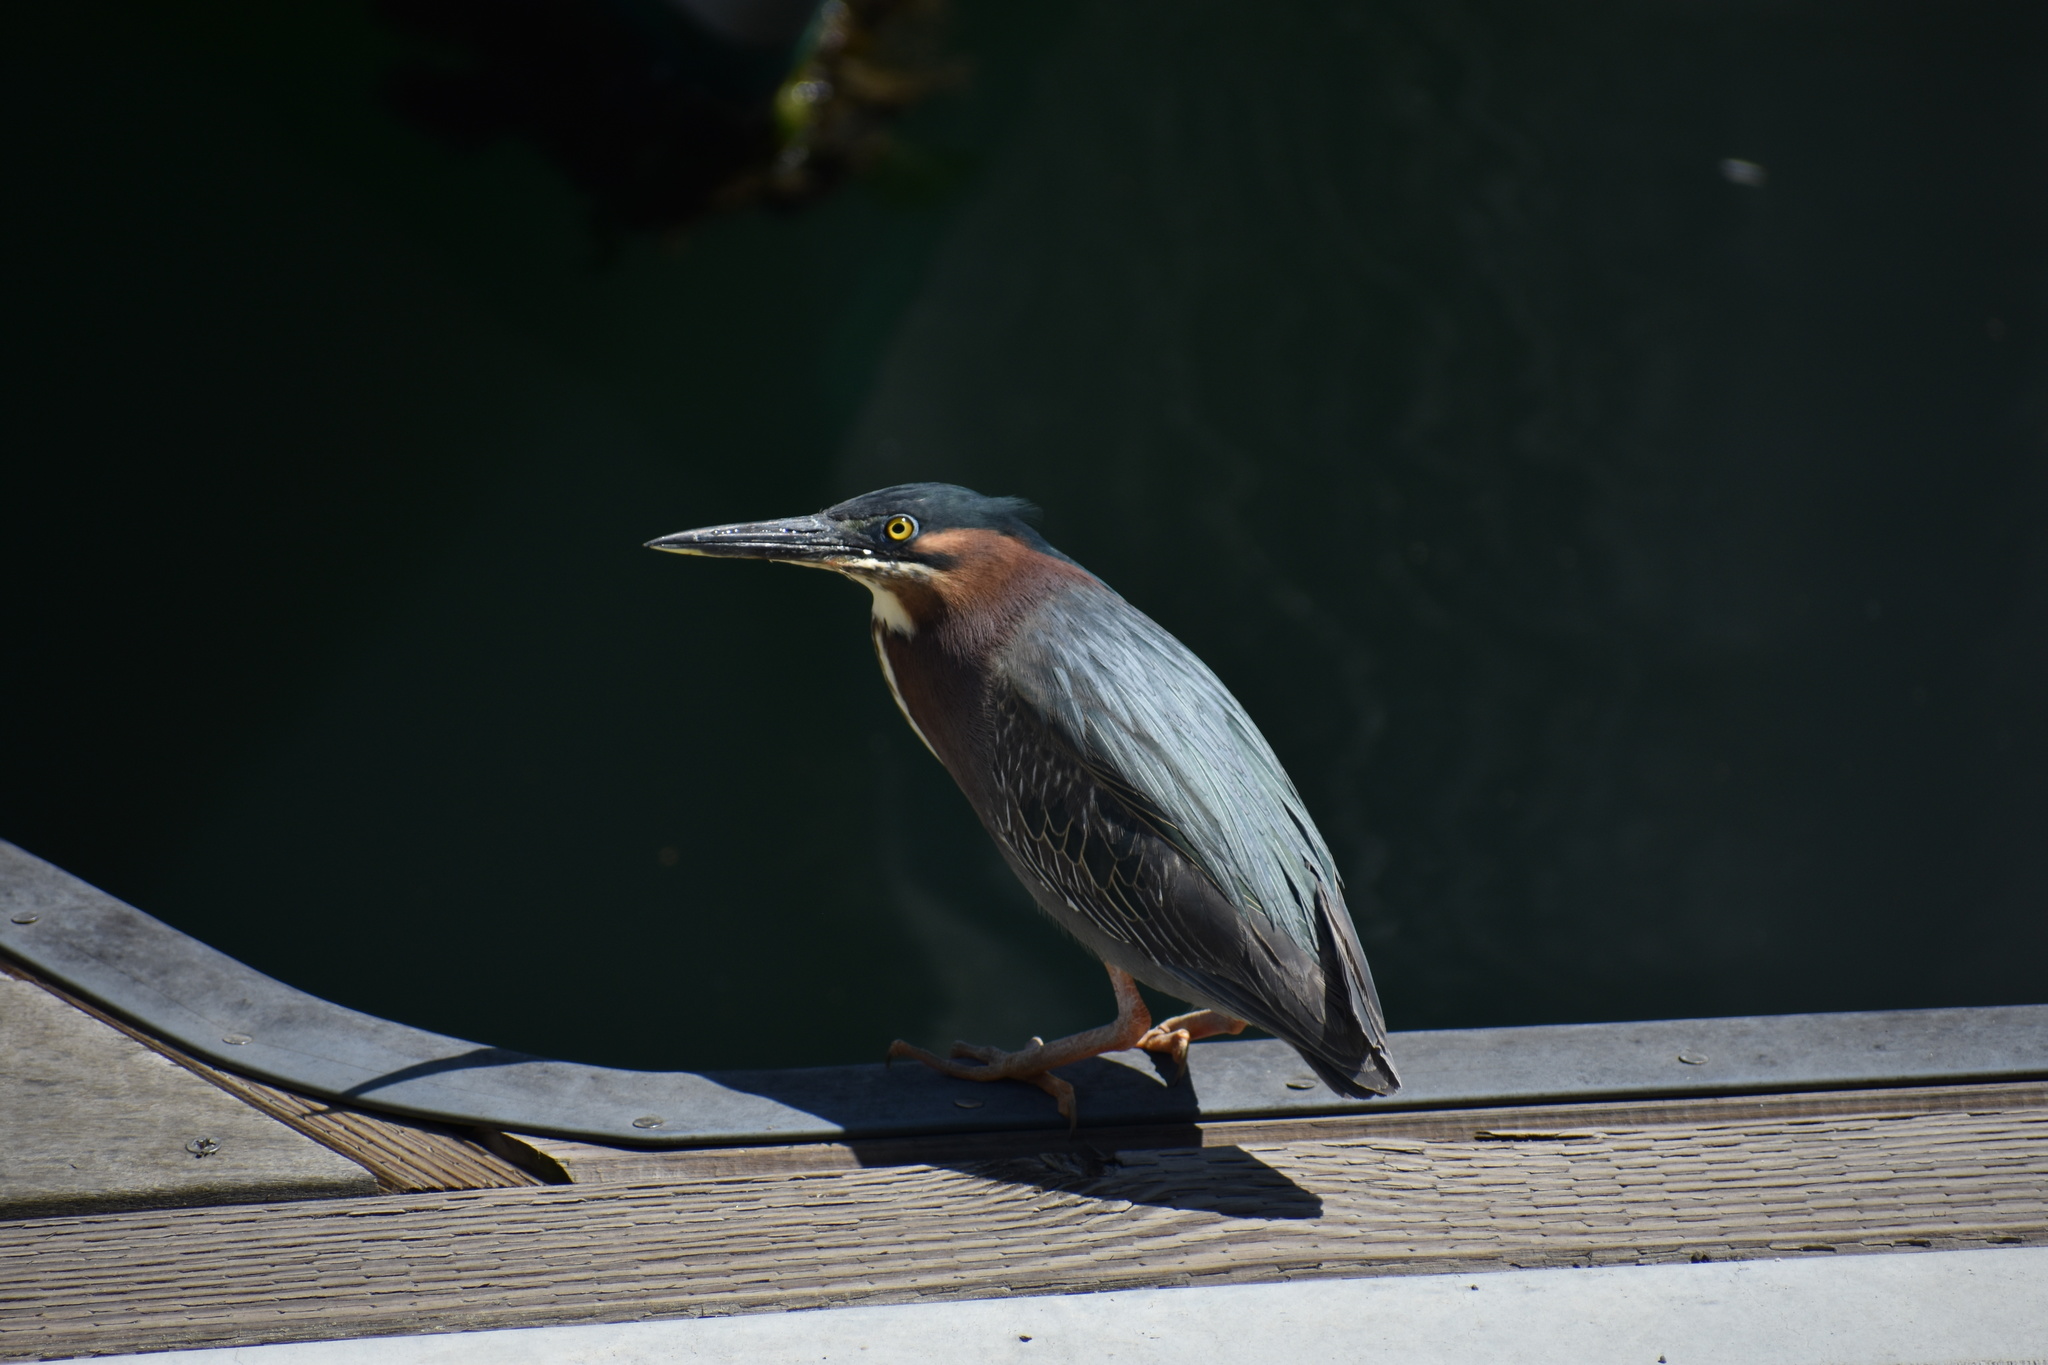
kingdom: Animalia
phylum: Chordata
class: Aves
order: Pelecaniformes
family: Ardeidae
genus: Butorides
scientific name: Butorides virescens
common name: Green heron
